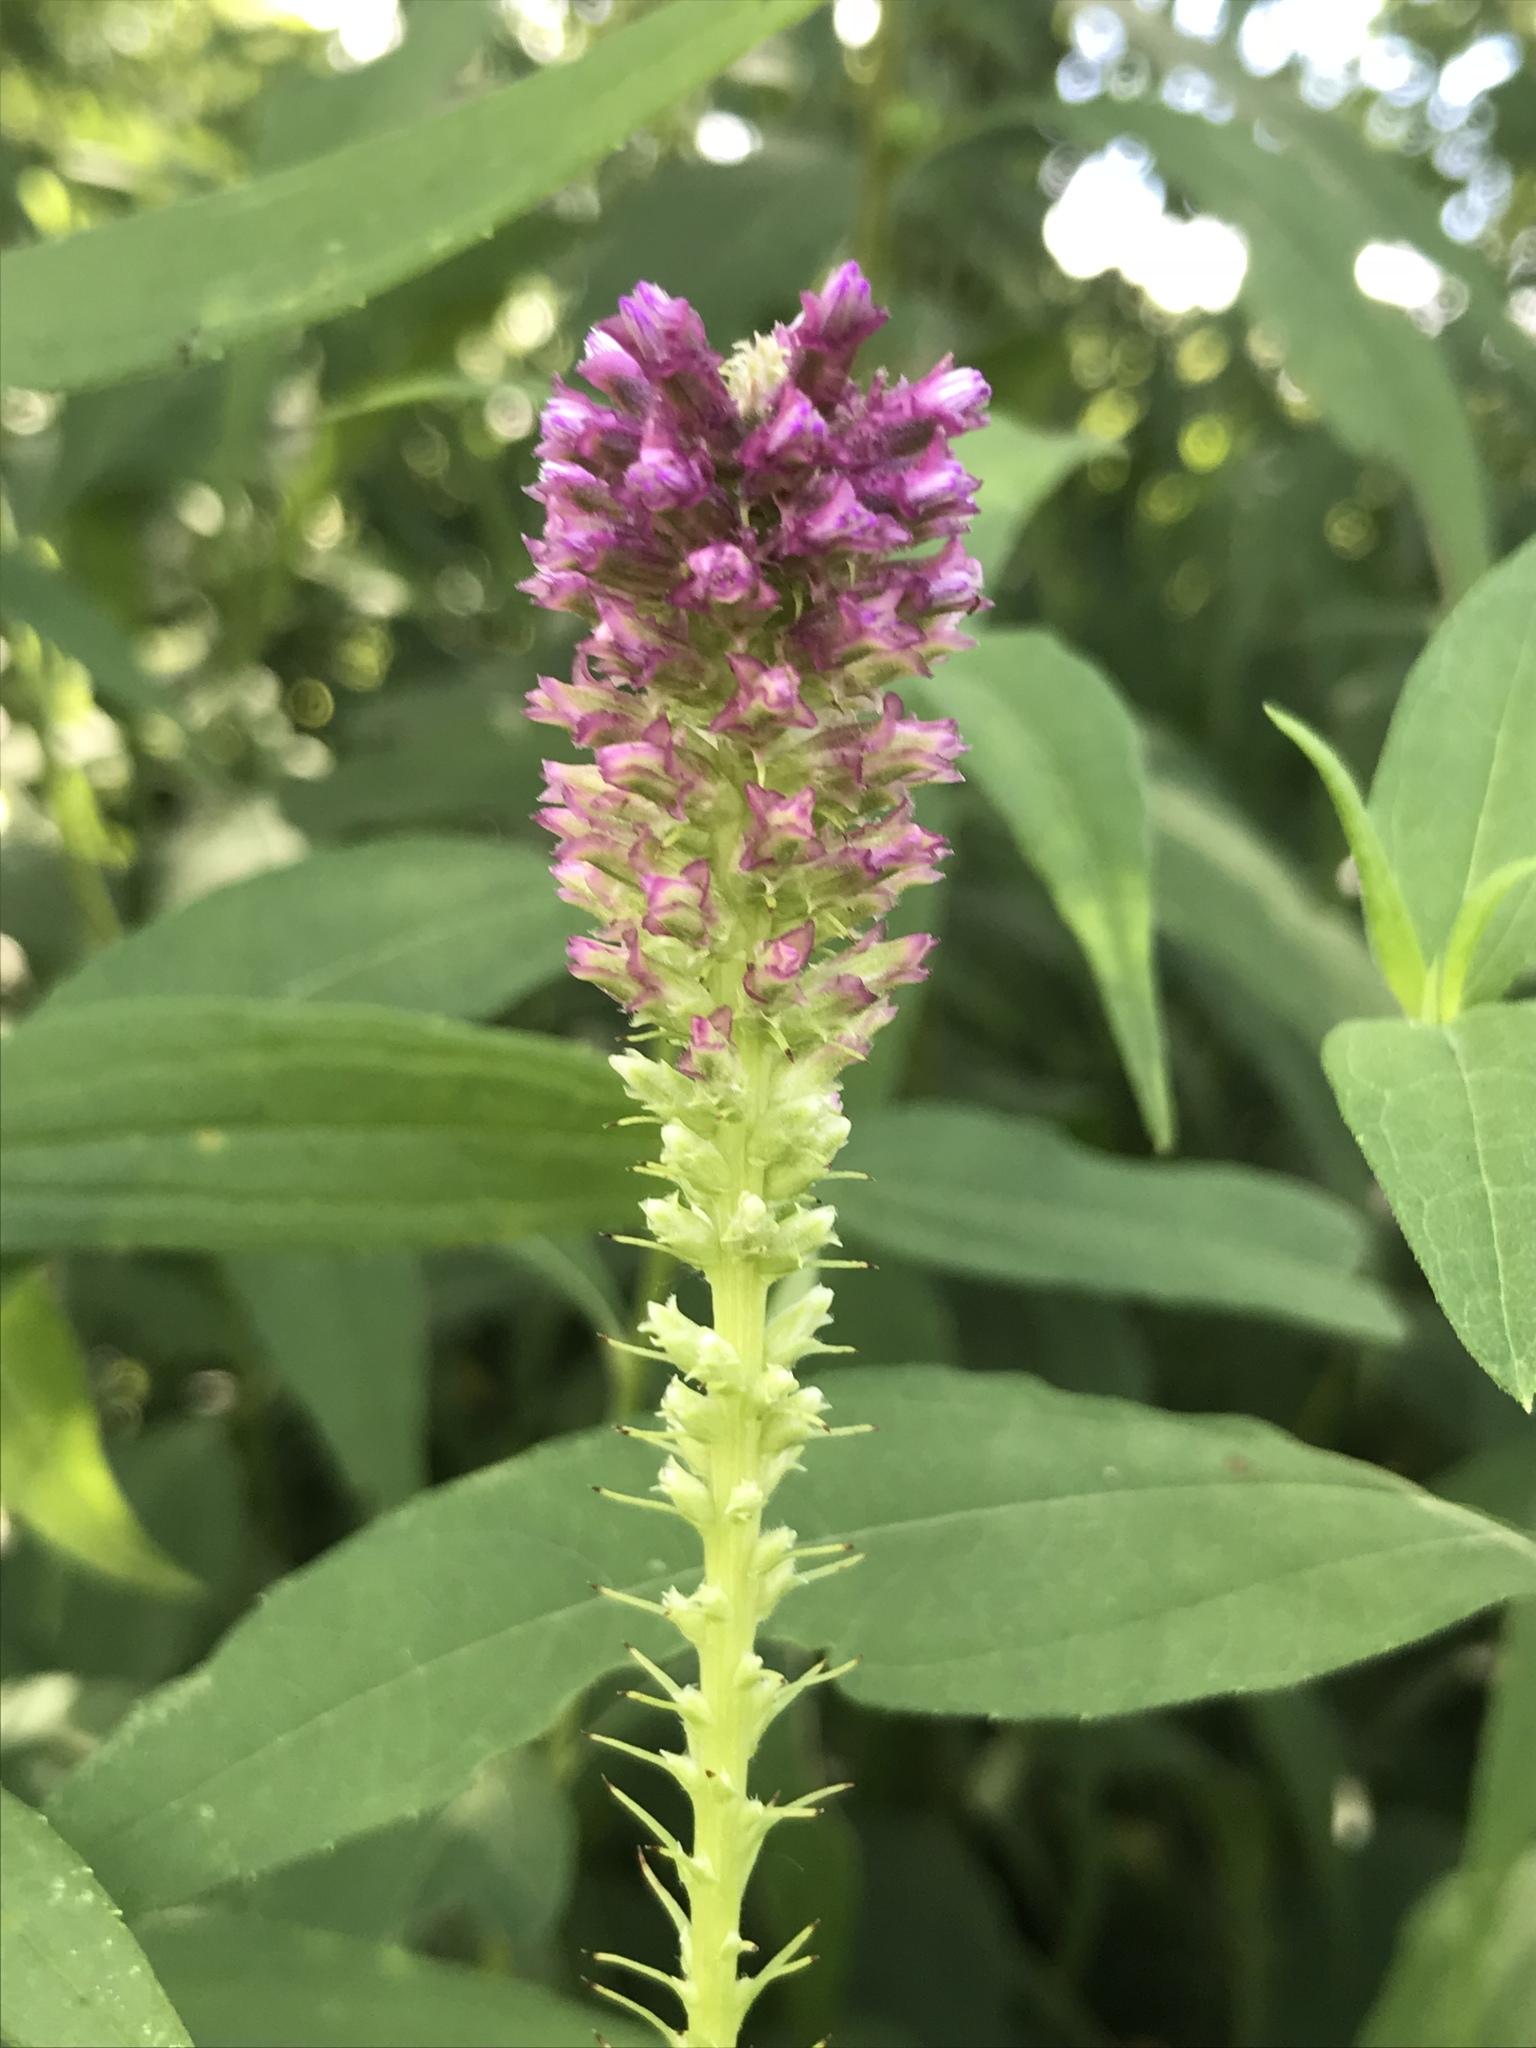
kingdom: Plantae
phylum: Tracheophyta
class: Magnoliopsida
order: Asterales
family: Asteraceae
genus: Liatris
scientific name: Liatris pycnostachya
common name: Cattail gayfeather
